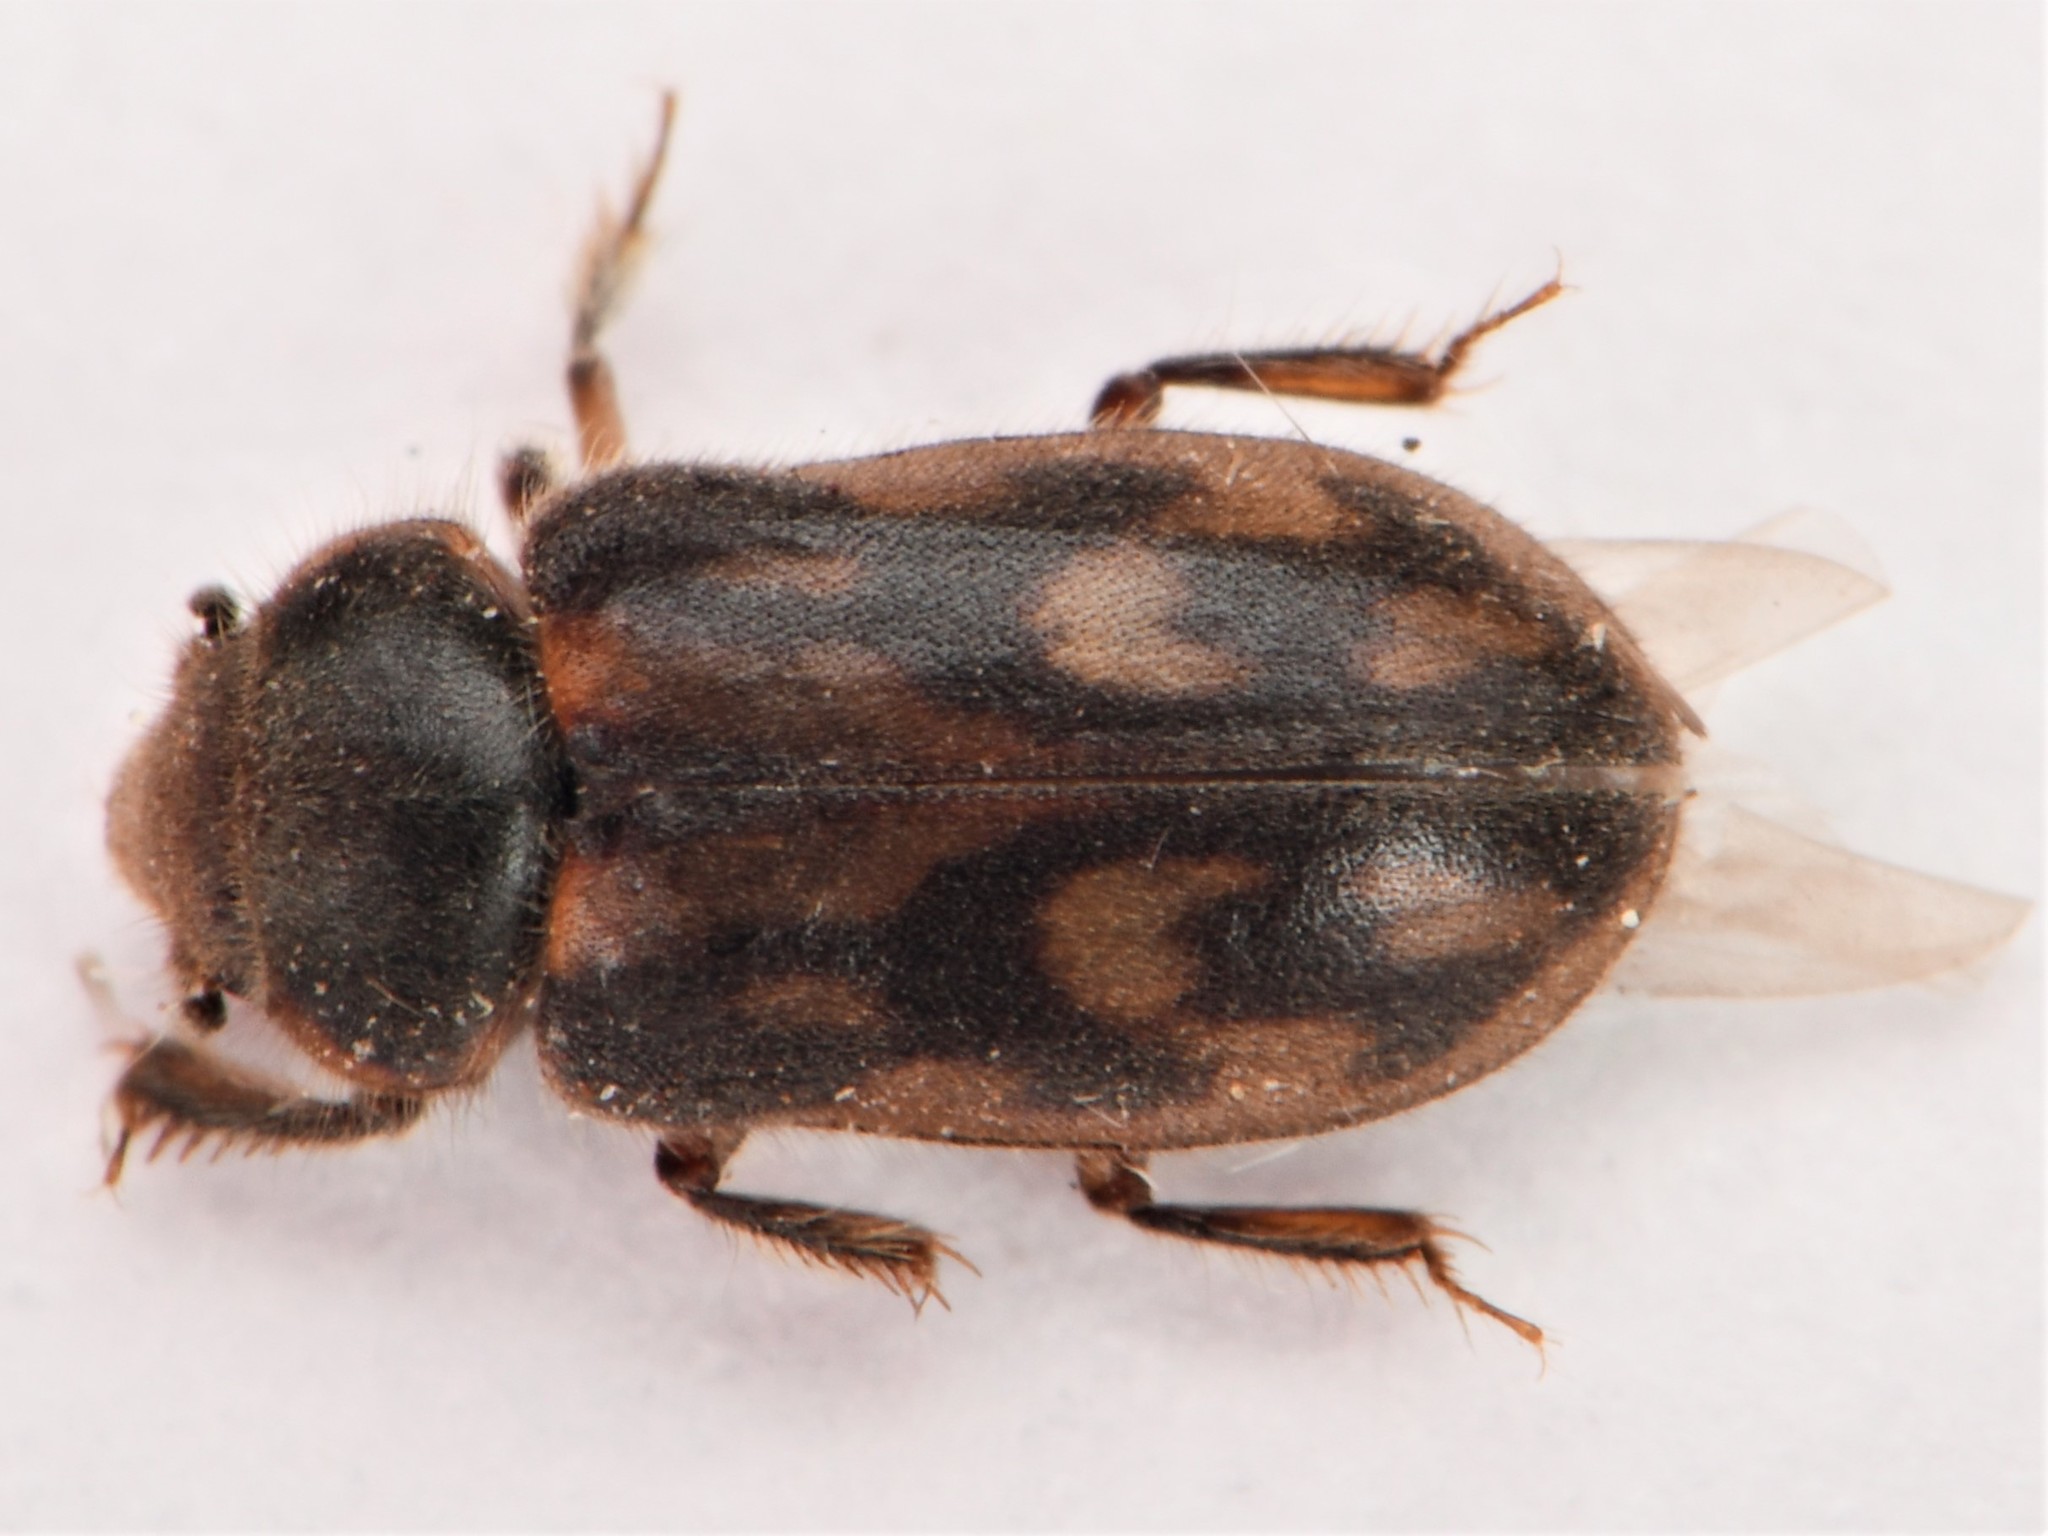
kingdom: Animalia
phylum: Arthropoda
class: Insecta
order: Coleoptera
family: Heteroceridae
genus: Heterocerus
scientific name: Heterocerus fenestratus
